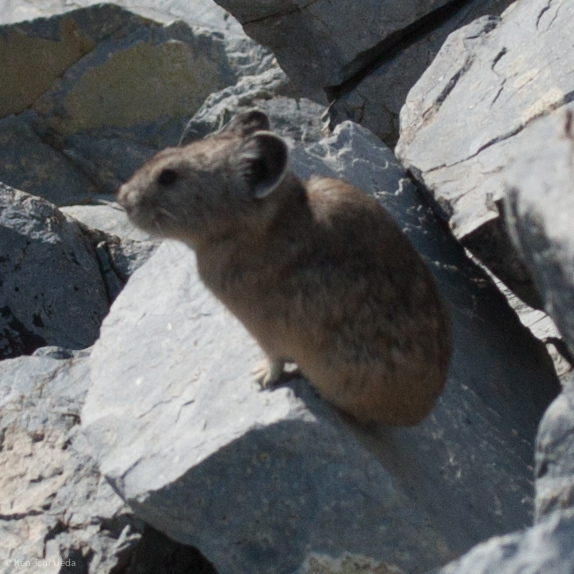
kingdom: Animalia
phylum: Chordata
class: Mammalia
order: Lagomorpha
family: Ochotonidae
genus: Ochotona
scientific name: Ochotona princeps
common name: American pika
